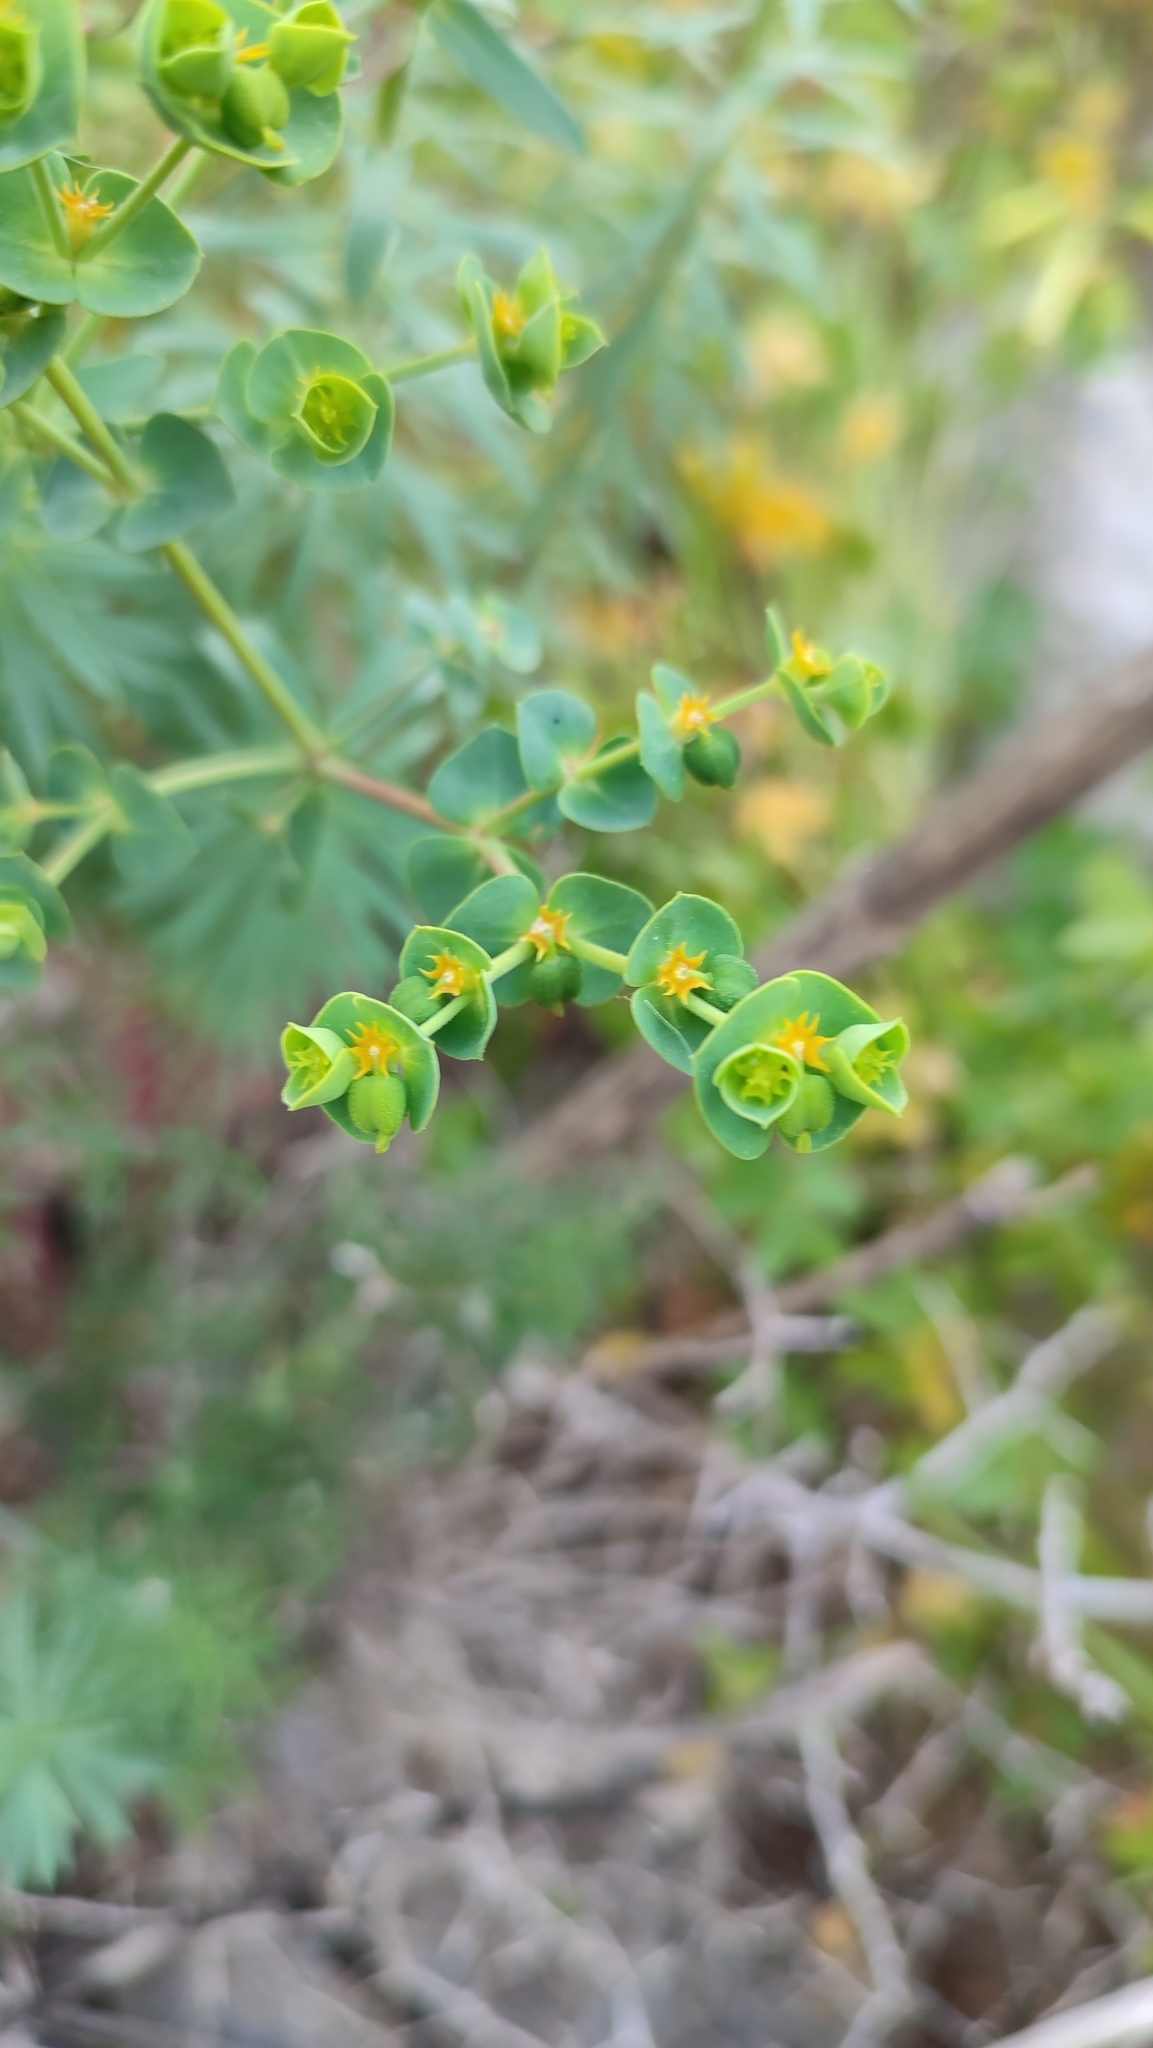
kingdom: Plantae
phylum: Tracheophyta
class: Magnoliopsida
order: Malpighiales
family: Euphorbiaceae
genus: Euphorbia
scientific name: Euphorbia segetalis
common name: Corn spurge
